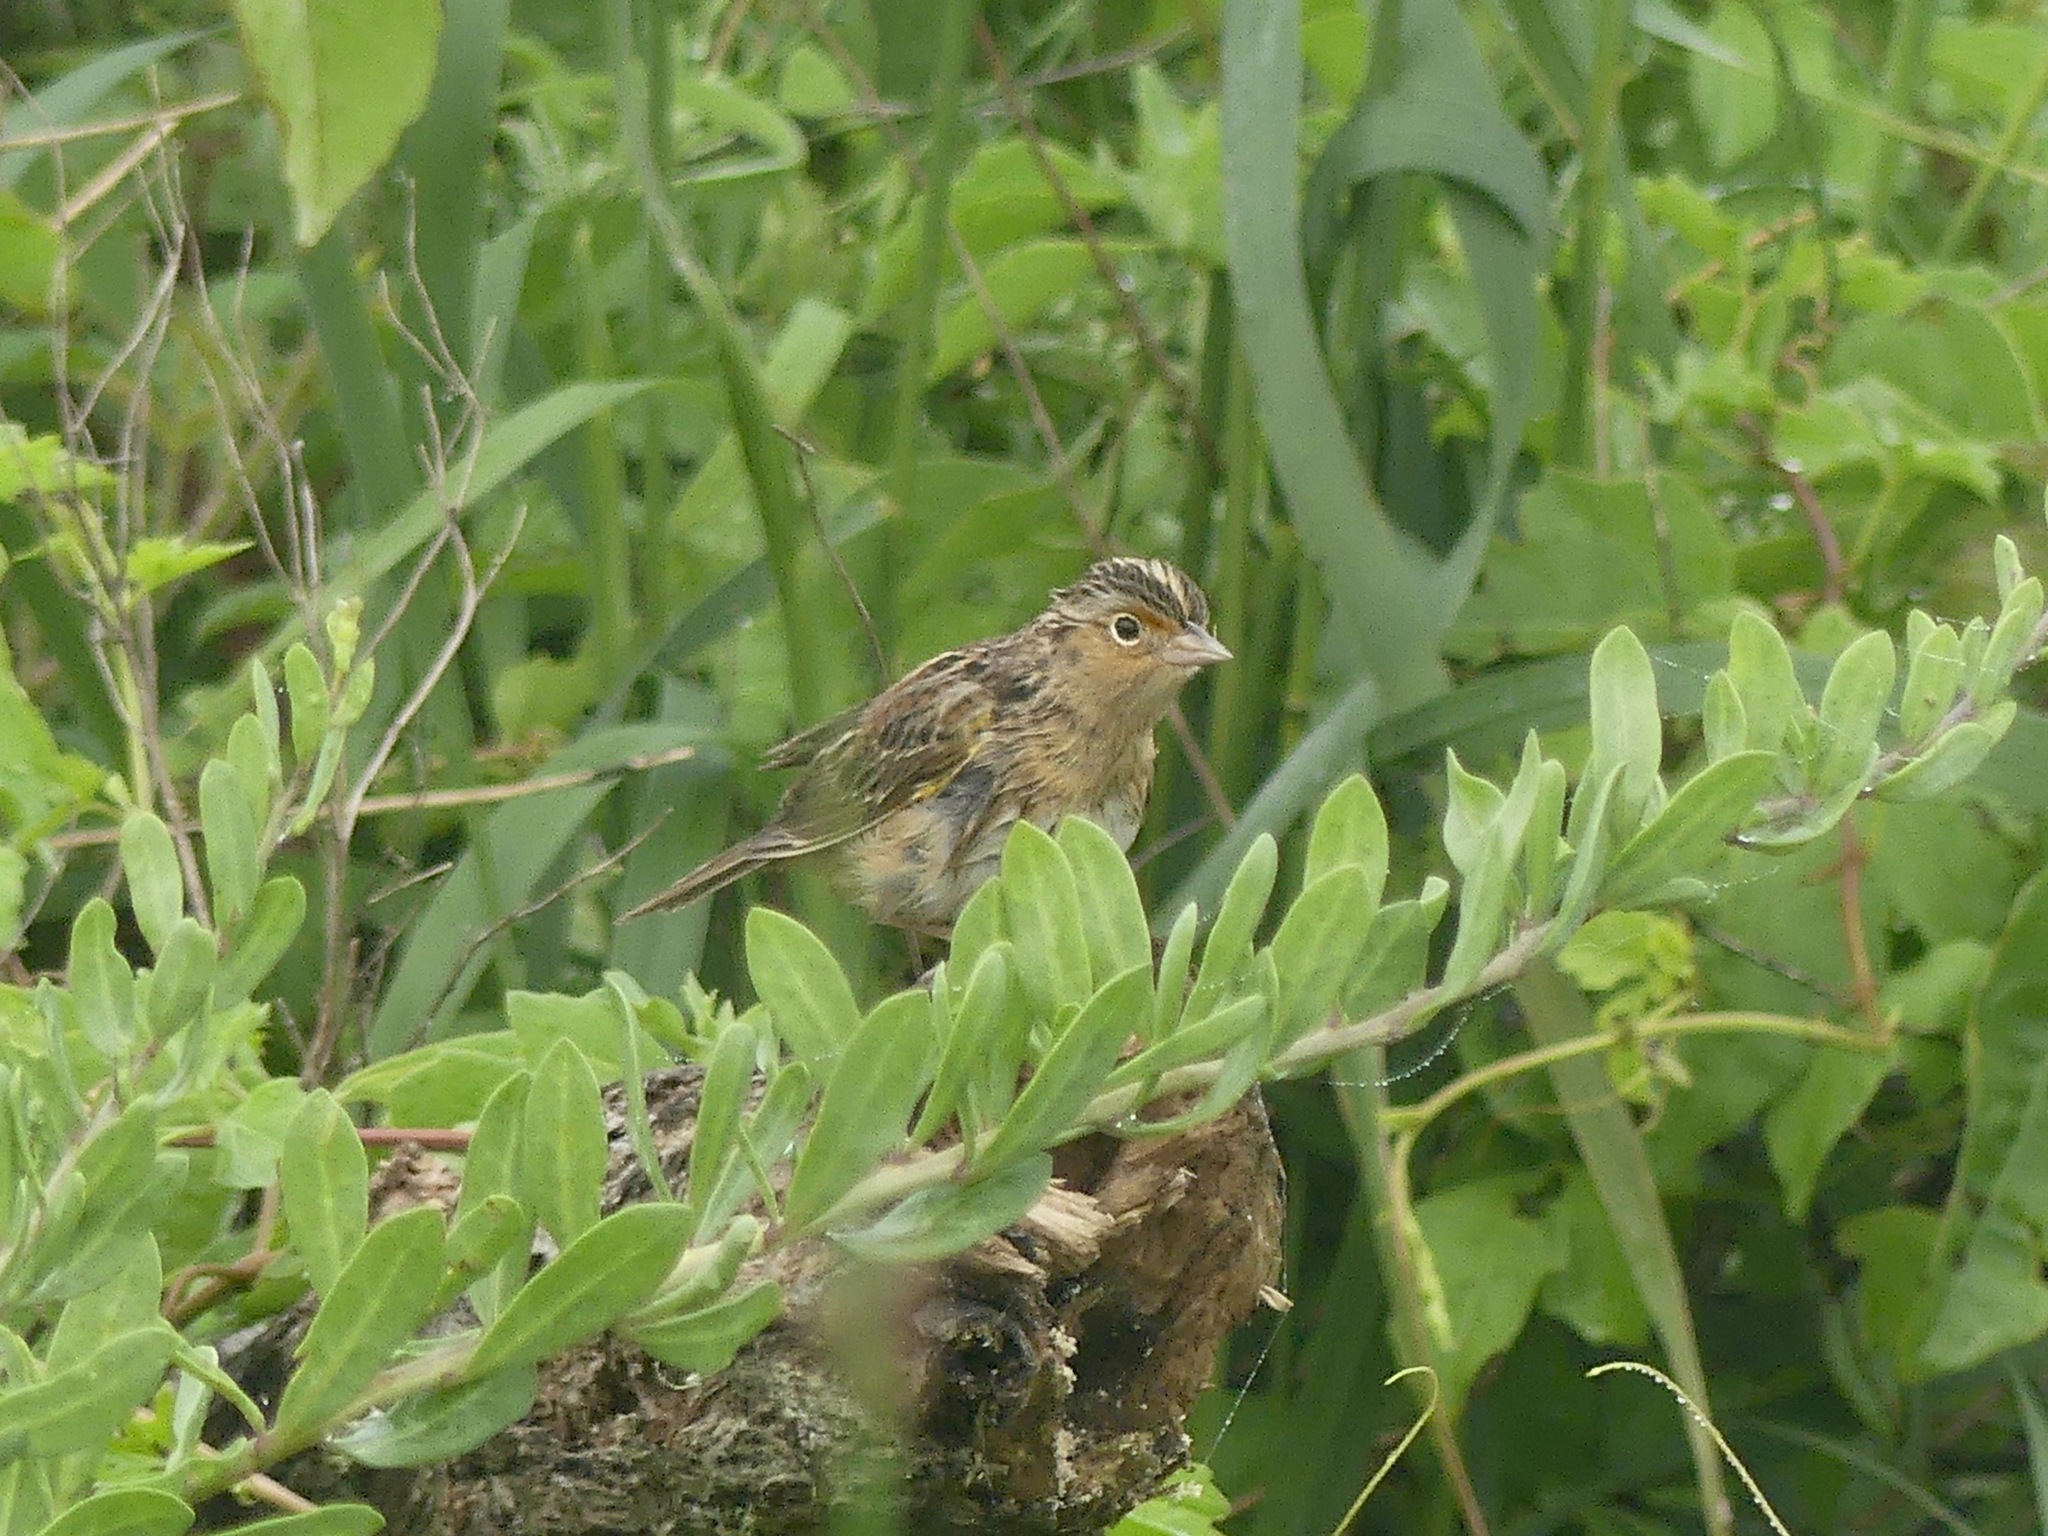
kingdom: Animalia
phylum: Chordata
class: Aves
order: Passeriformes
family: Passerellidae
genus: Ammodramus
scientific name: Ammodramus savannarum
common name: Grasshopper sparrow
